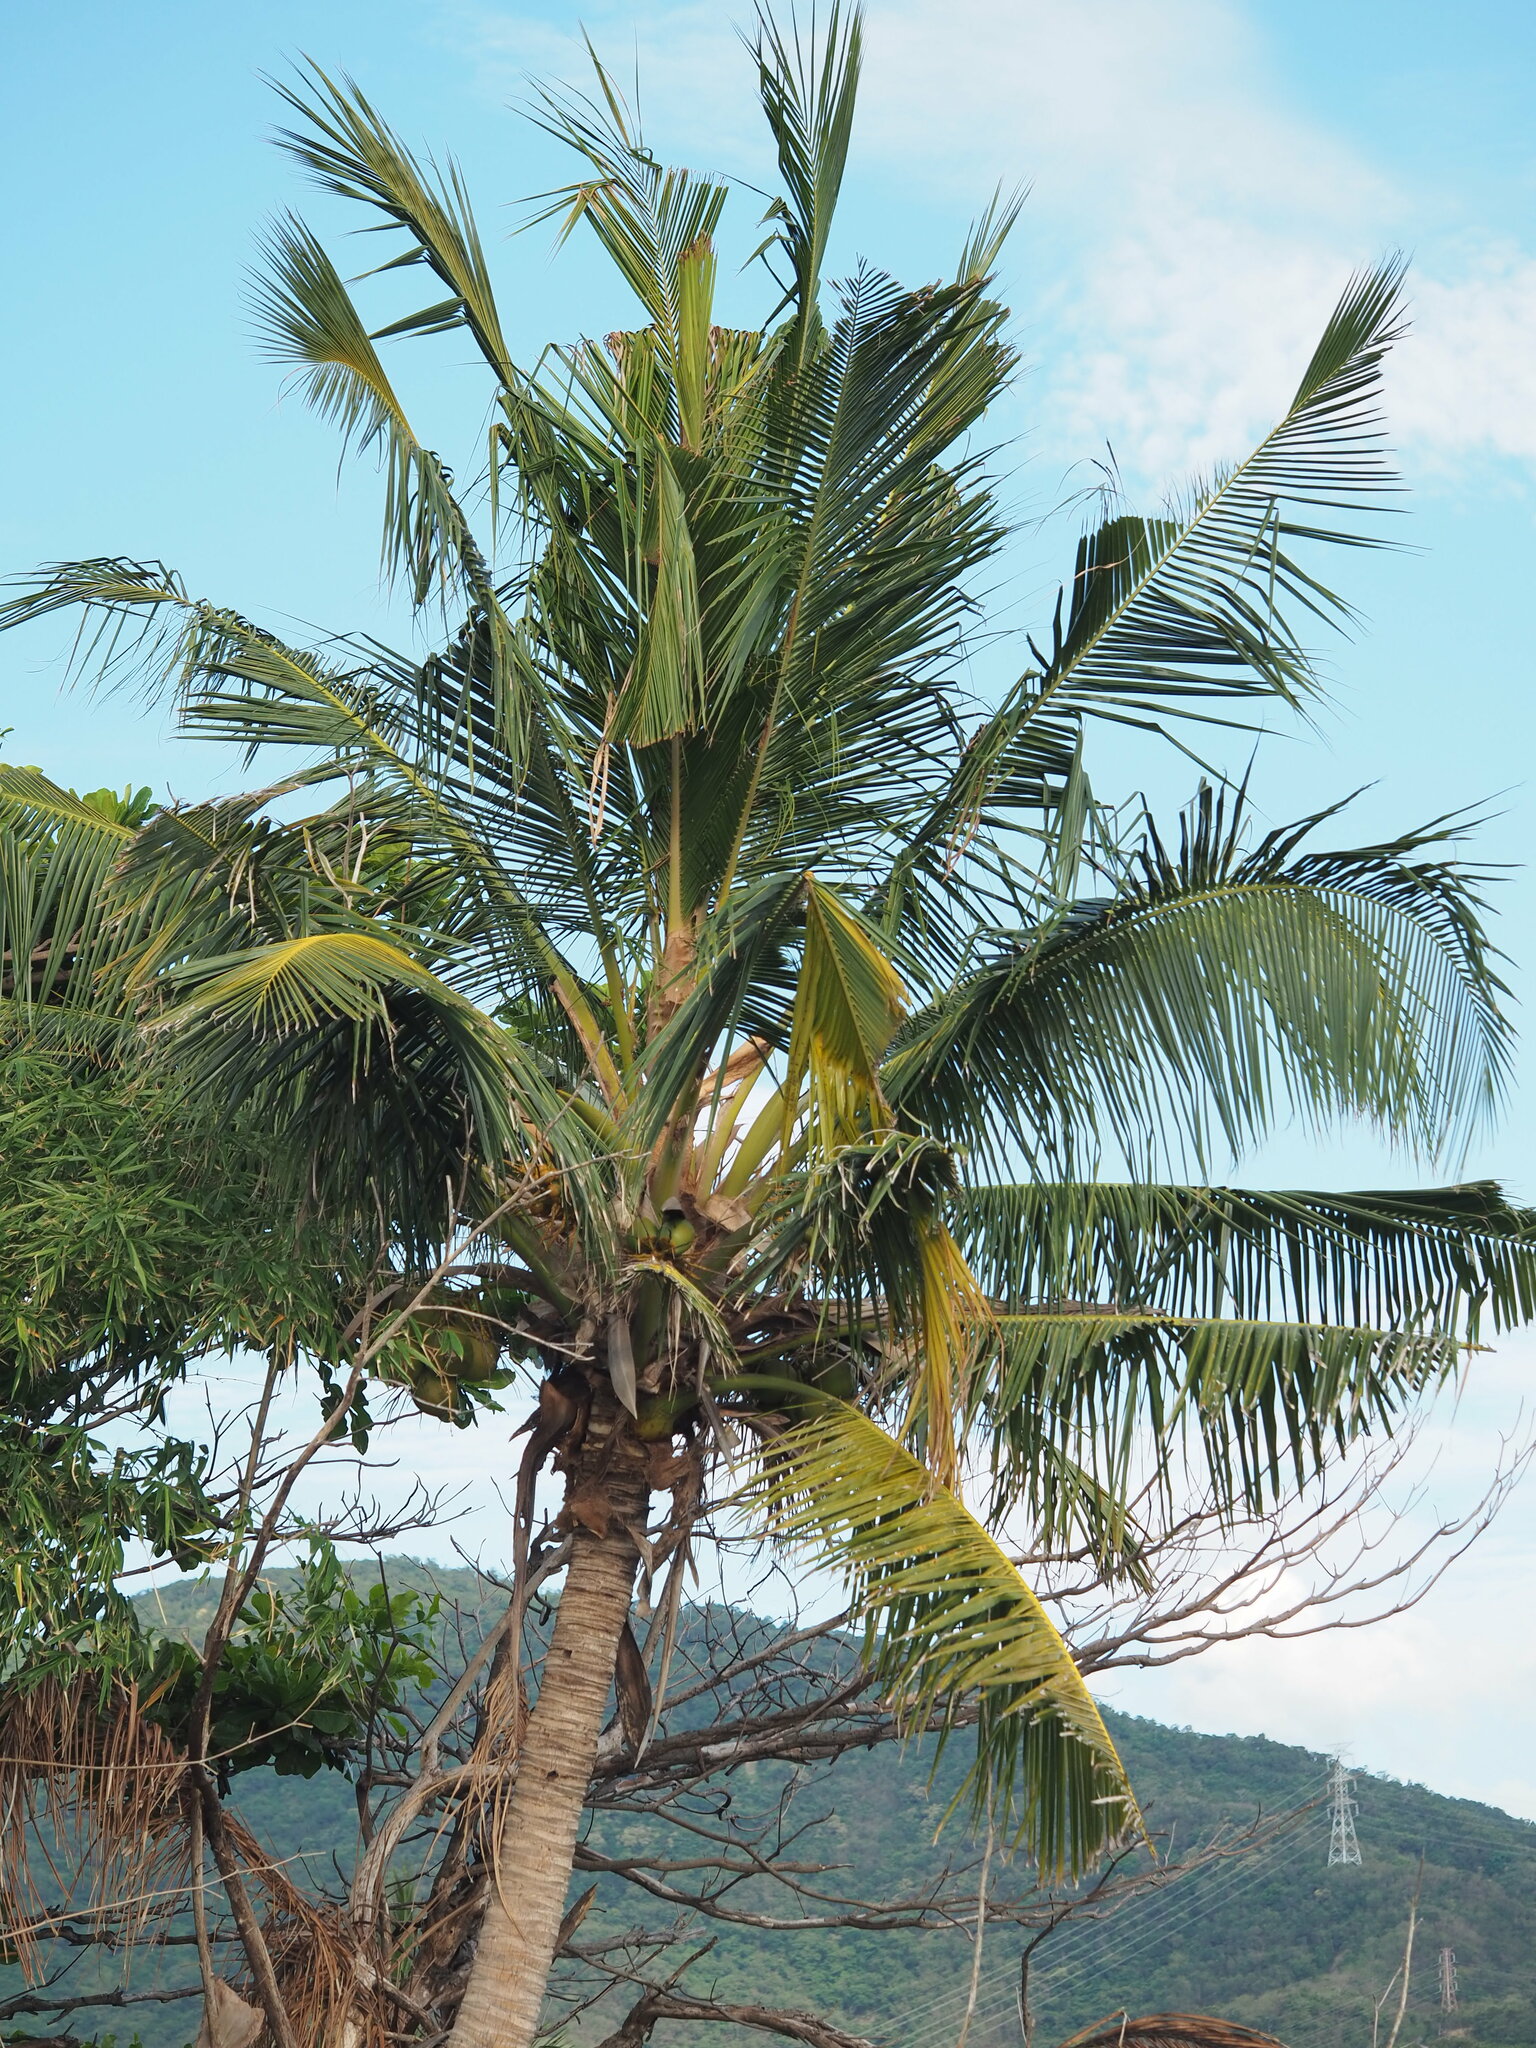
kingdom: Plantae
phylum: Tracheophyta
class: Liliopsida
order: Arecales
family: Arecaceae
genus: Cocos
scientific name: Cocos nucifera
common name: Coconut palm
